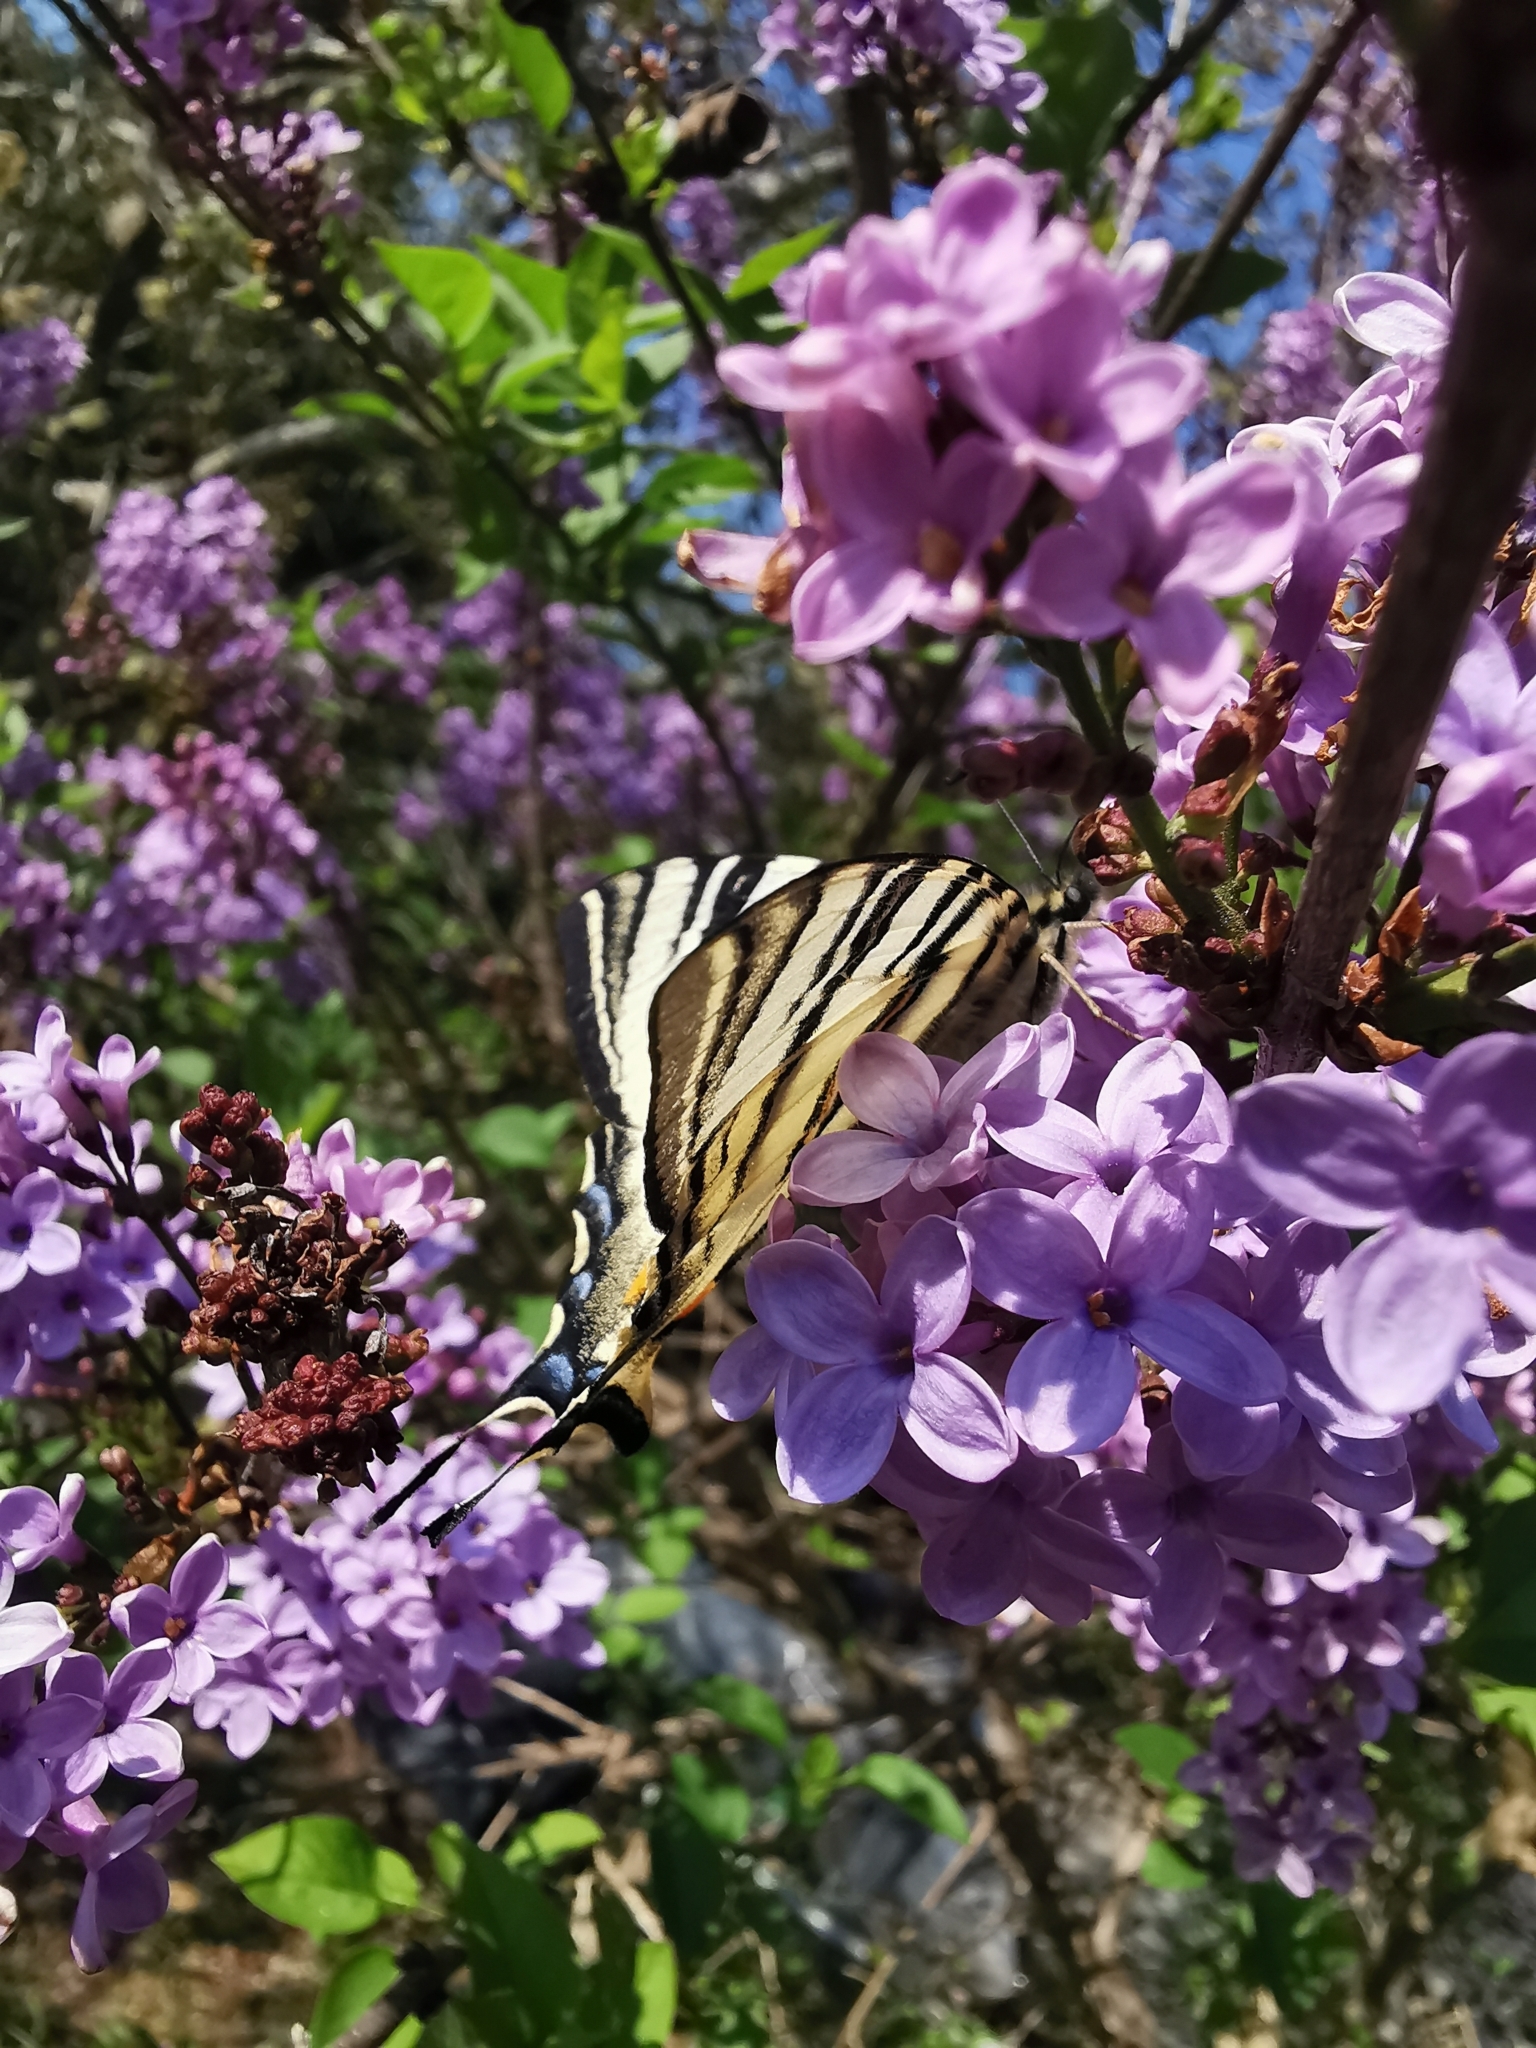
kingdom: Animalia
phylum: Arthropoda
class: Insecta
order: Lepidoptera
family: Papilionidae
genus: Iphiclides
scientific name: Iphiclides podalirius
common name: Scarce swallowtail
